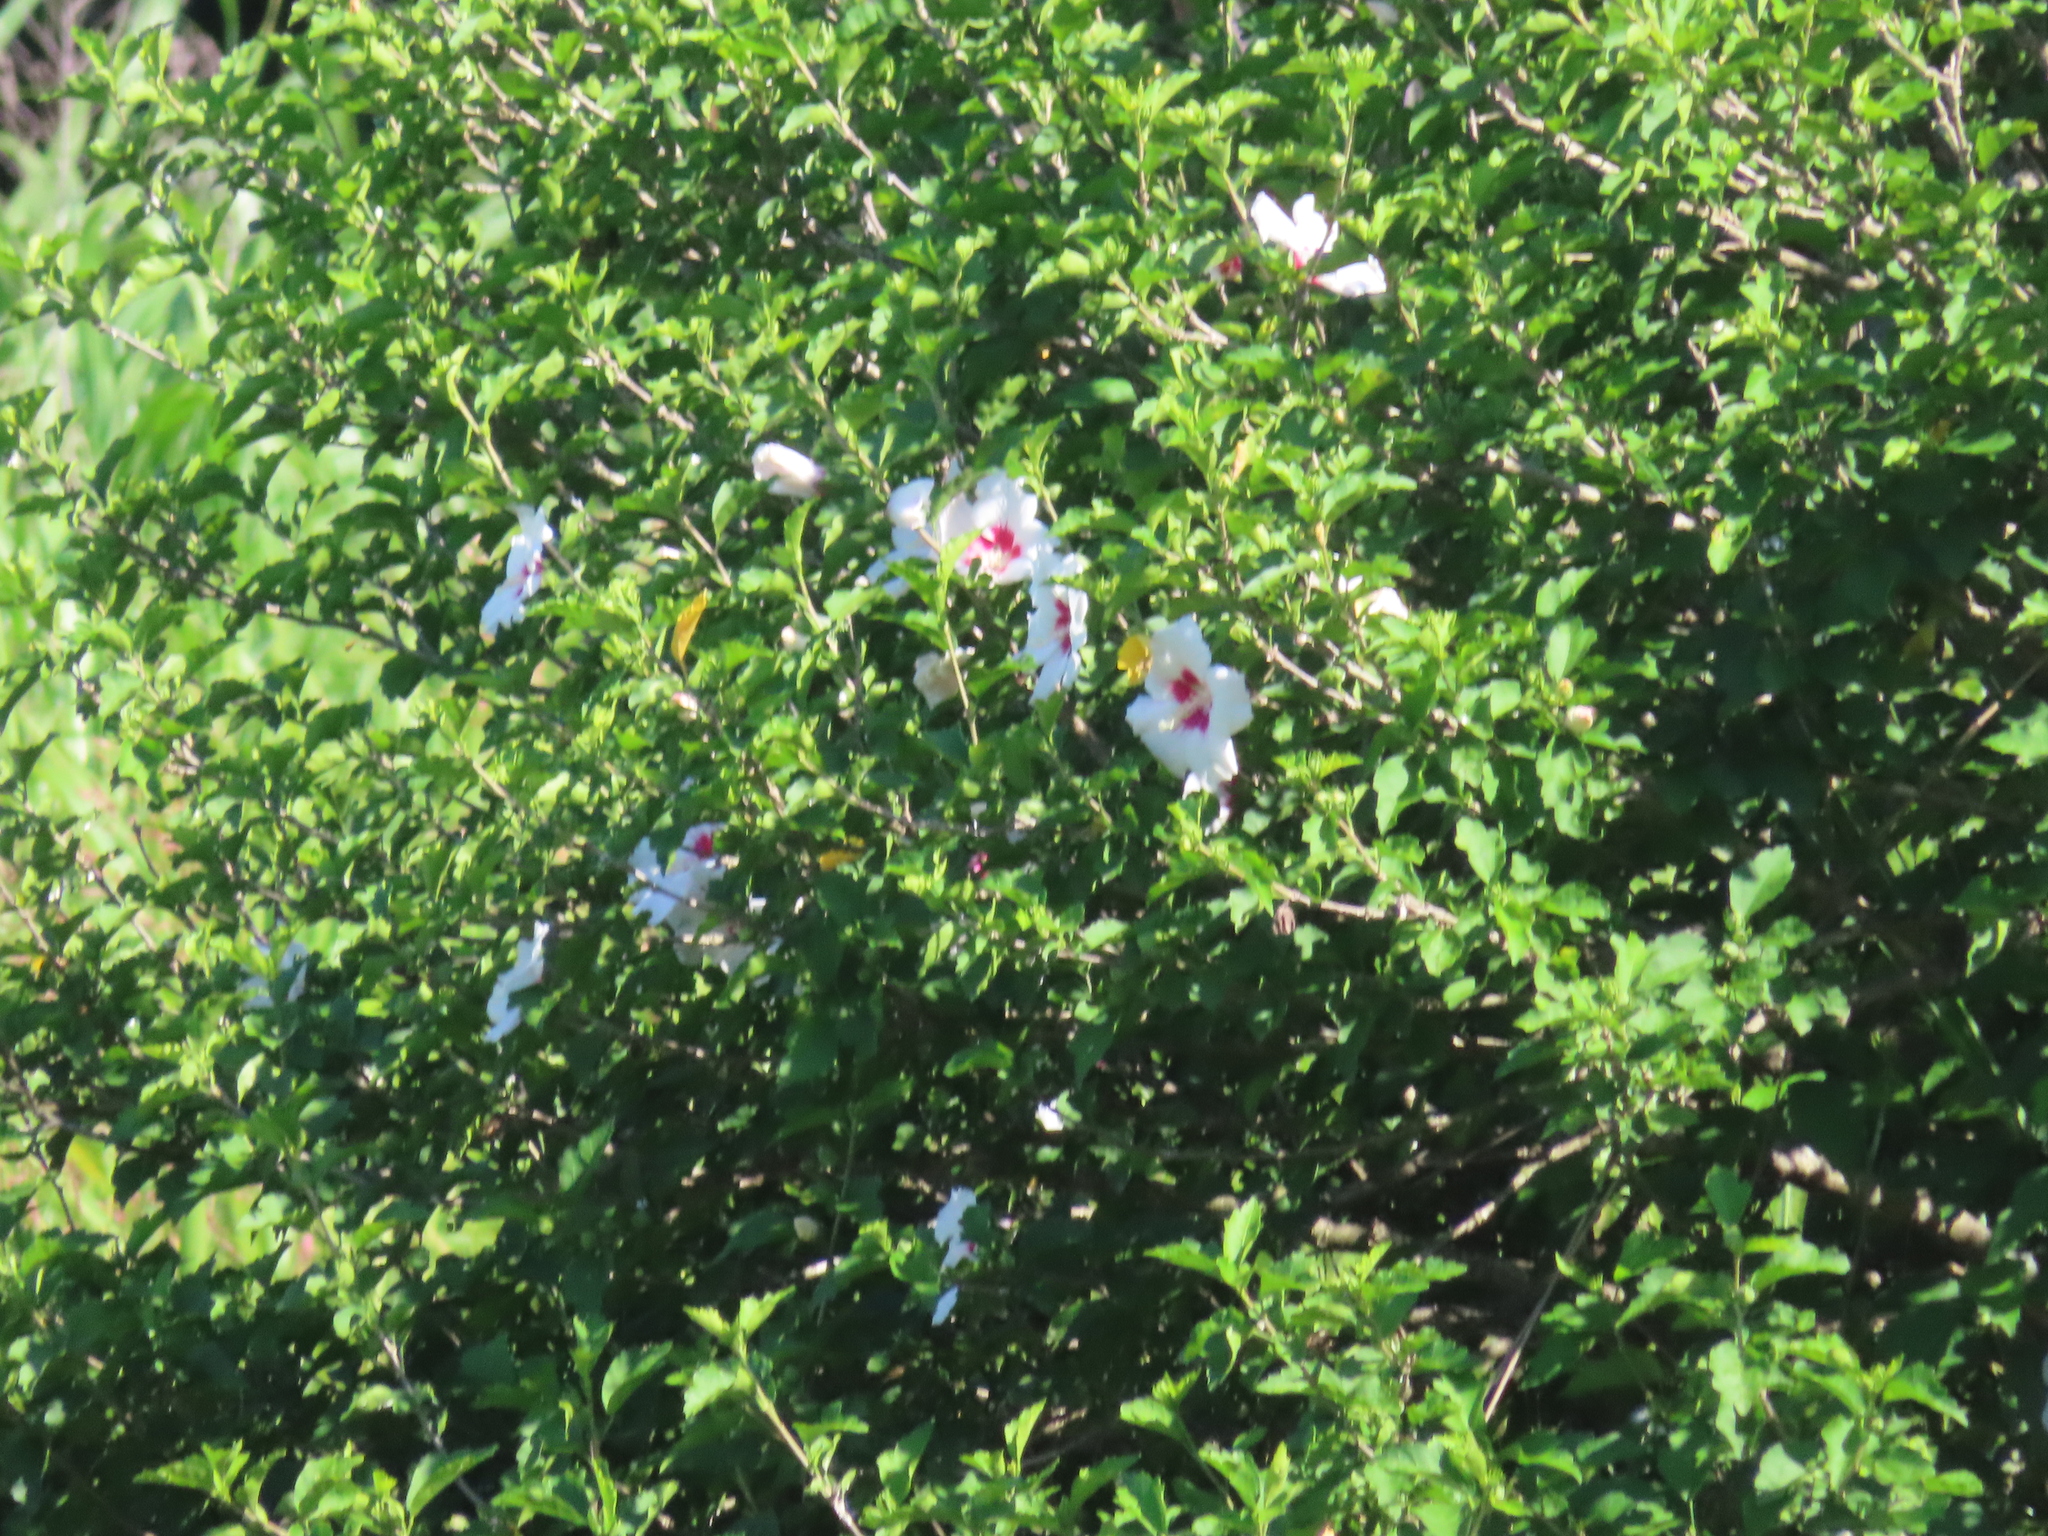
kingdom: Plantae
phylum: Tracheophyta
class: Magnoliopsida
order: Malvales
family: Malvaceae
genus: Hibiscus
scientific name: Hibiscus syriacus
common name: Syrian ketmia
